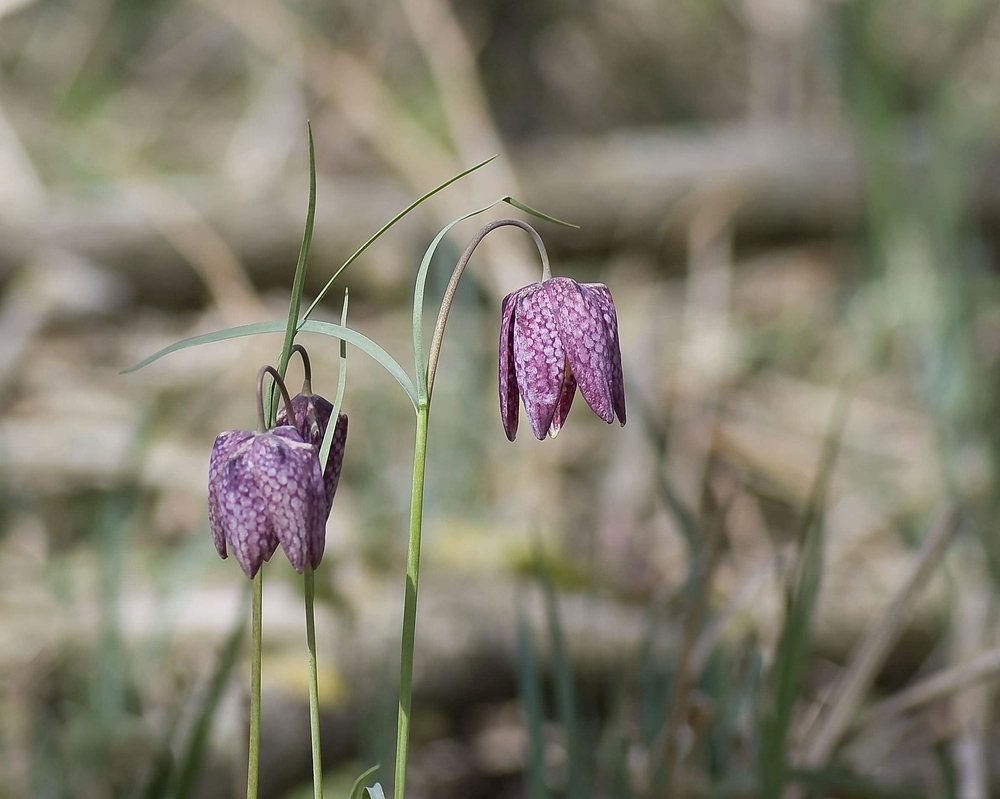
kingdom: Plantae
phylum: Tracheophyta
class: Liliopsida
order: Liliales
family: Liliaceae
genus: Fritillaria
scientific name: Fritillaria meleagris
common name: Fritillary
